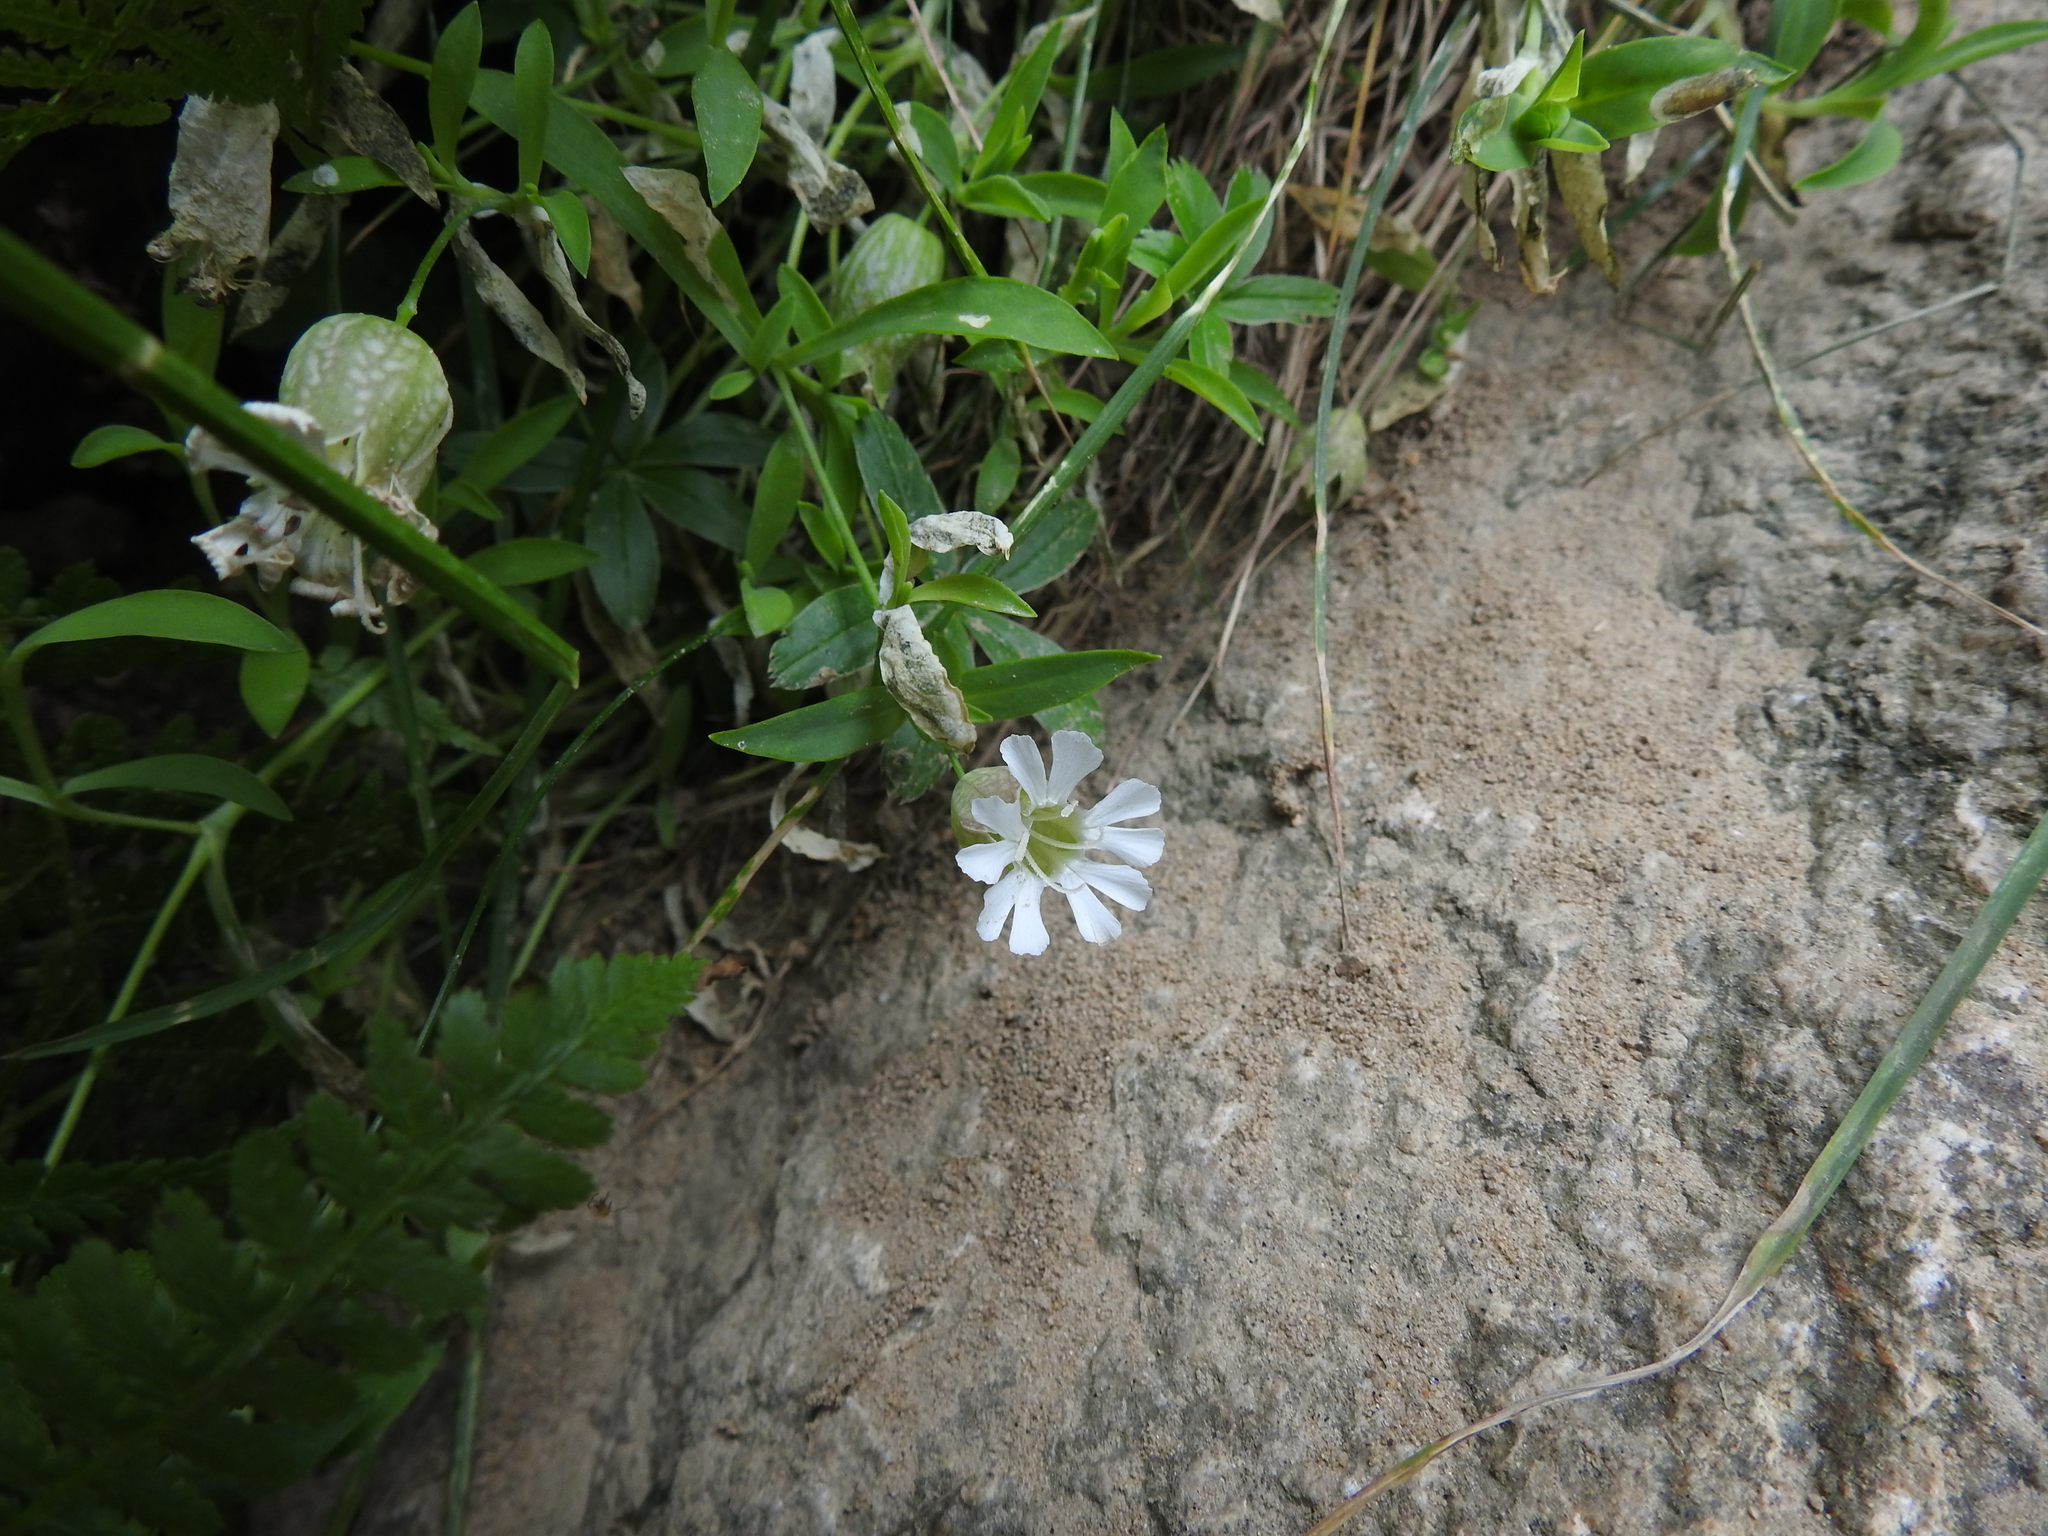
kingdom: Plantae
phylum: Tracheophyta
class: Magnoliopsida
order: Caryophyllales
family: Caryophyllaceae
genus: Silene
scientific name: Silene uniflora
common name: Sea campion
